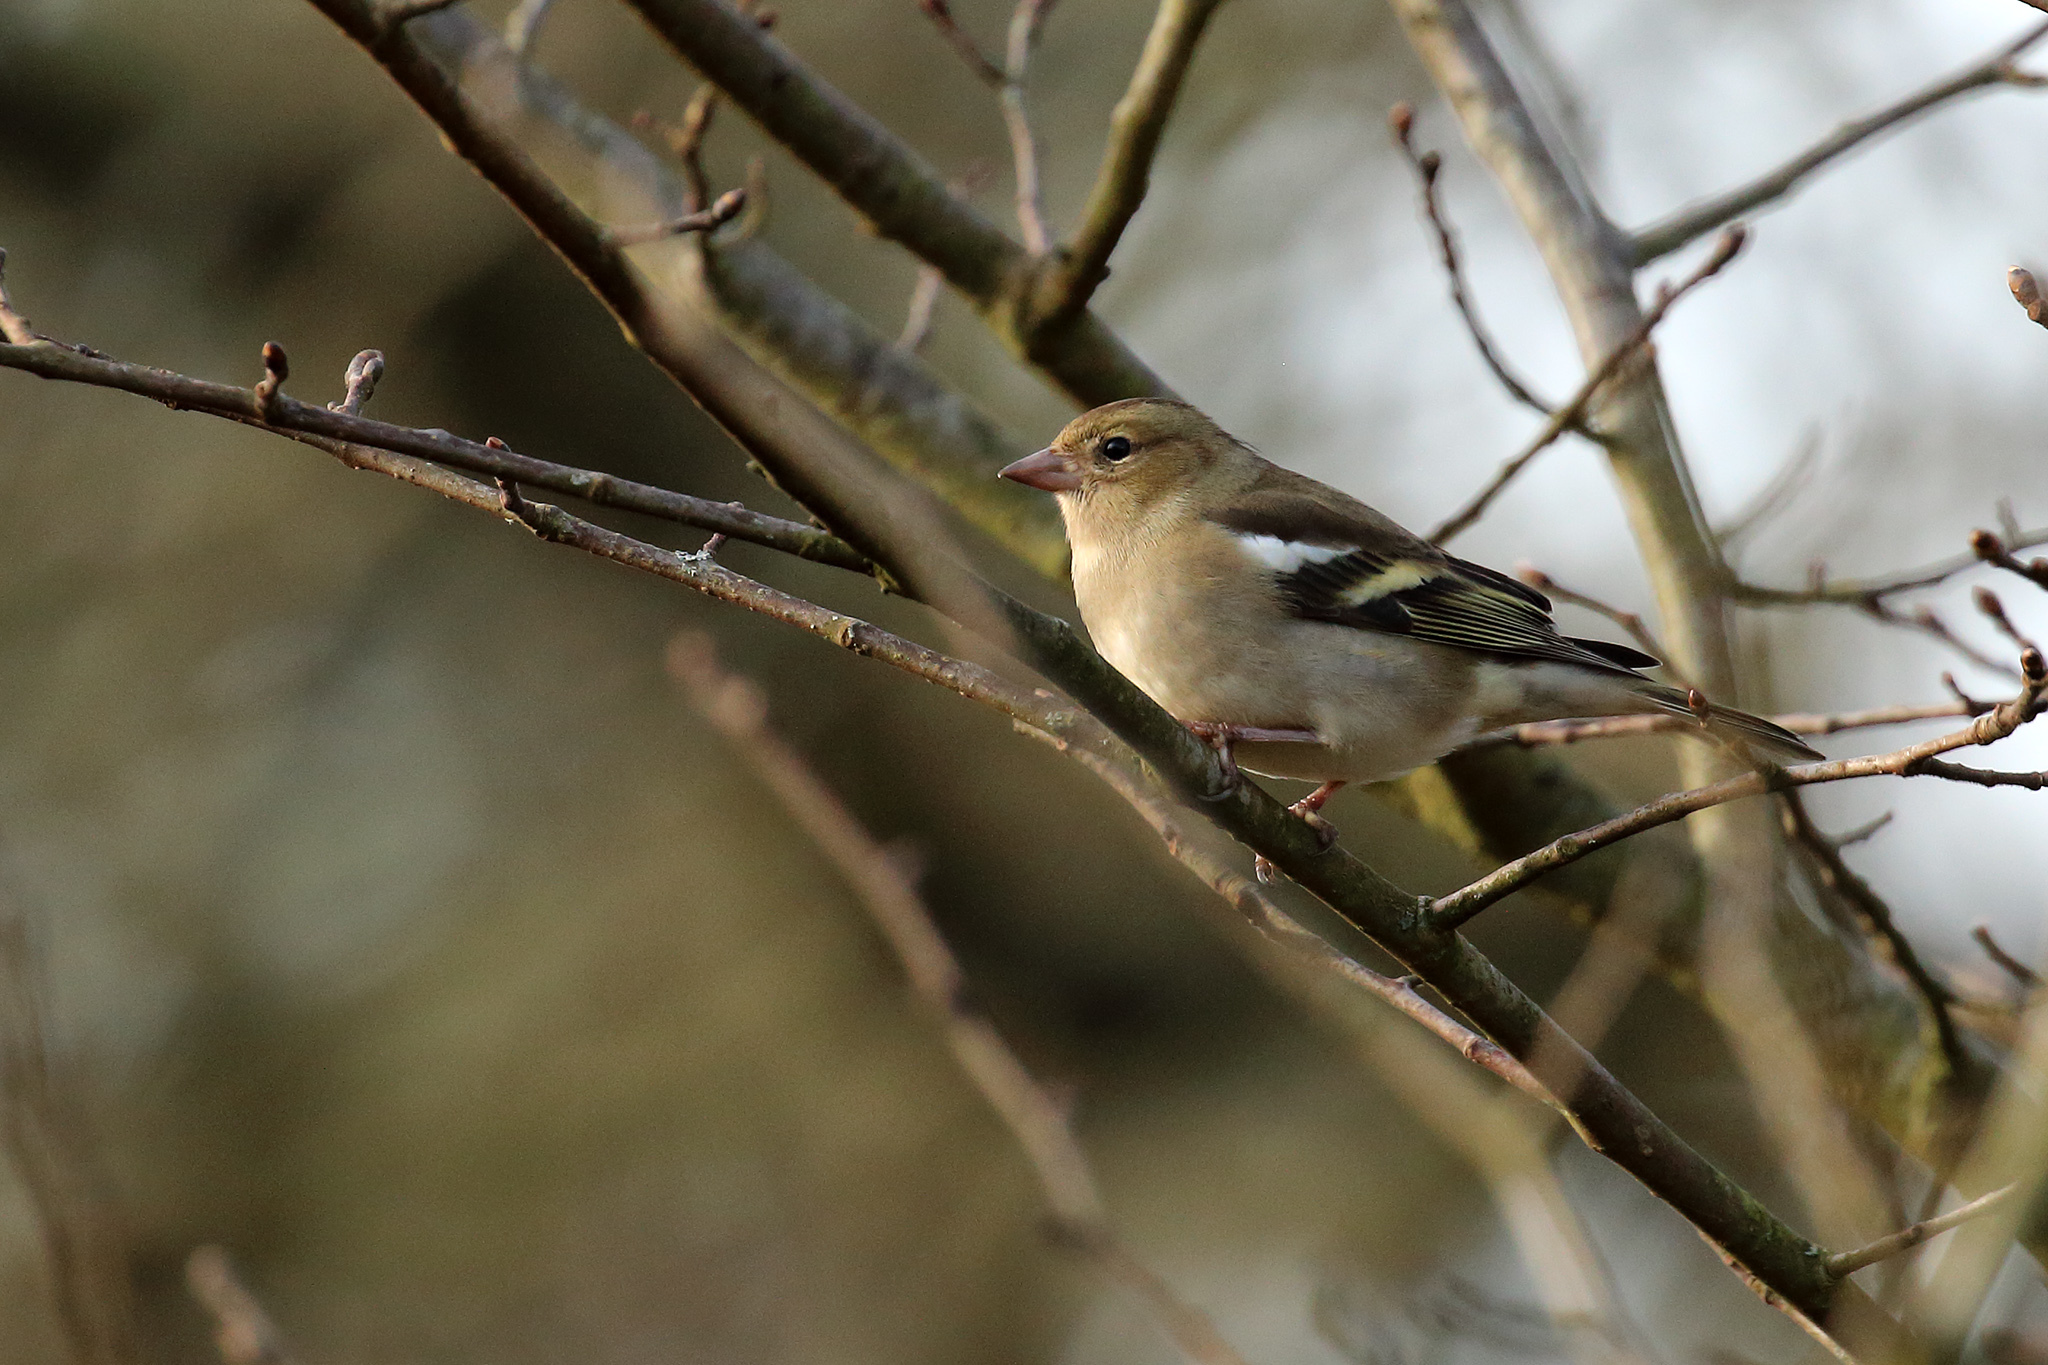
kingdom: Animalia
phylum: Chordata
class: Aves
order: Passeriformes
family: Fringillidae
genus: Fringilla
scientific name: Fringilla coelebs
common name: Common chaffinch
